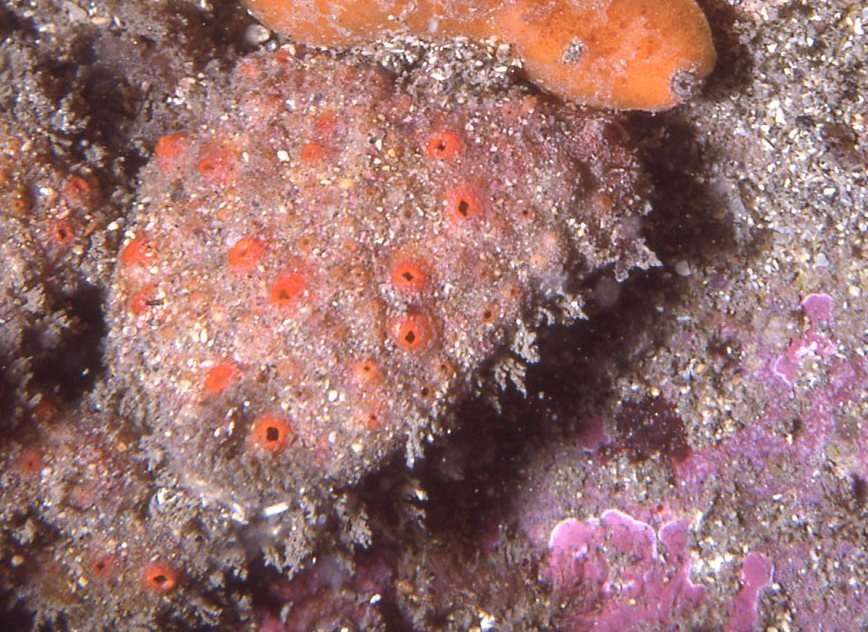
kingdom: Animalia
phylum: Chordata
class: Ascidiacea
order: Stolidobranchia
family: Styelidae
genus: Polyandrocarpa
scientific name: Polyandrocarpa lapidosa
